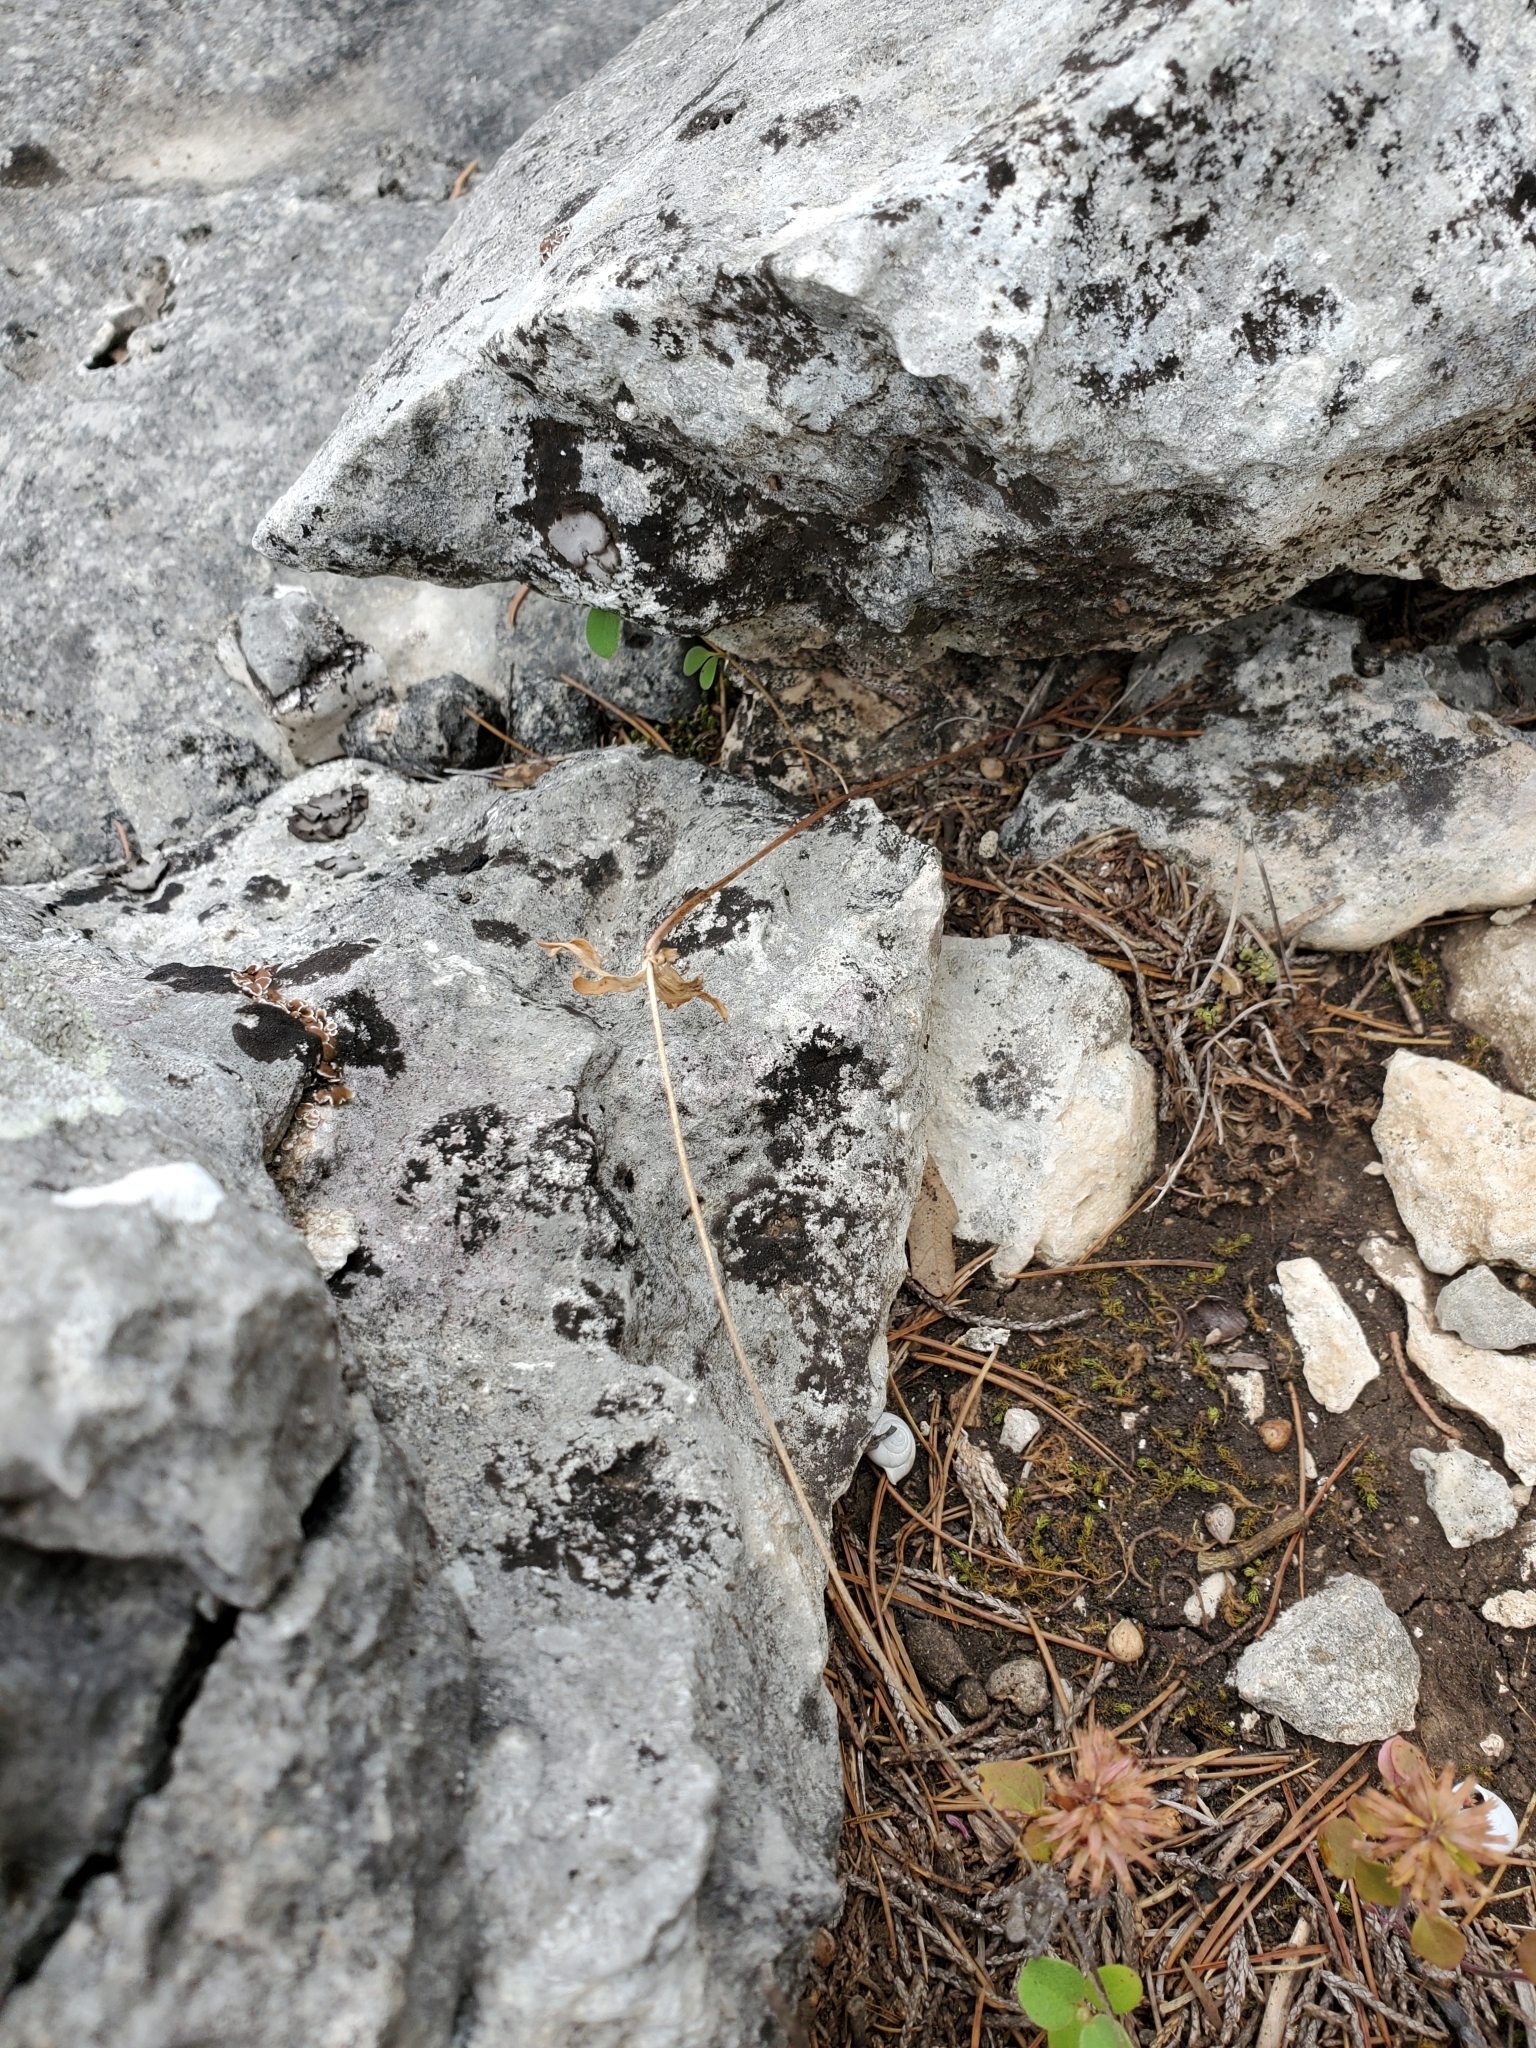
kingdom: Plantae
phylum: Tracheophyta
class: Magnoliopsida
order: Ranunculales
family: Ranunculaceae
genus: Anemone
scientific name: Anemone edwardsiana
